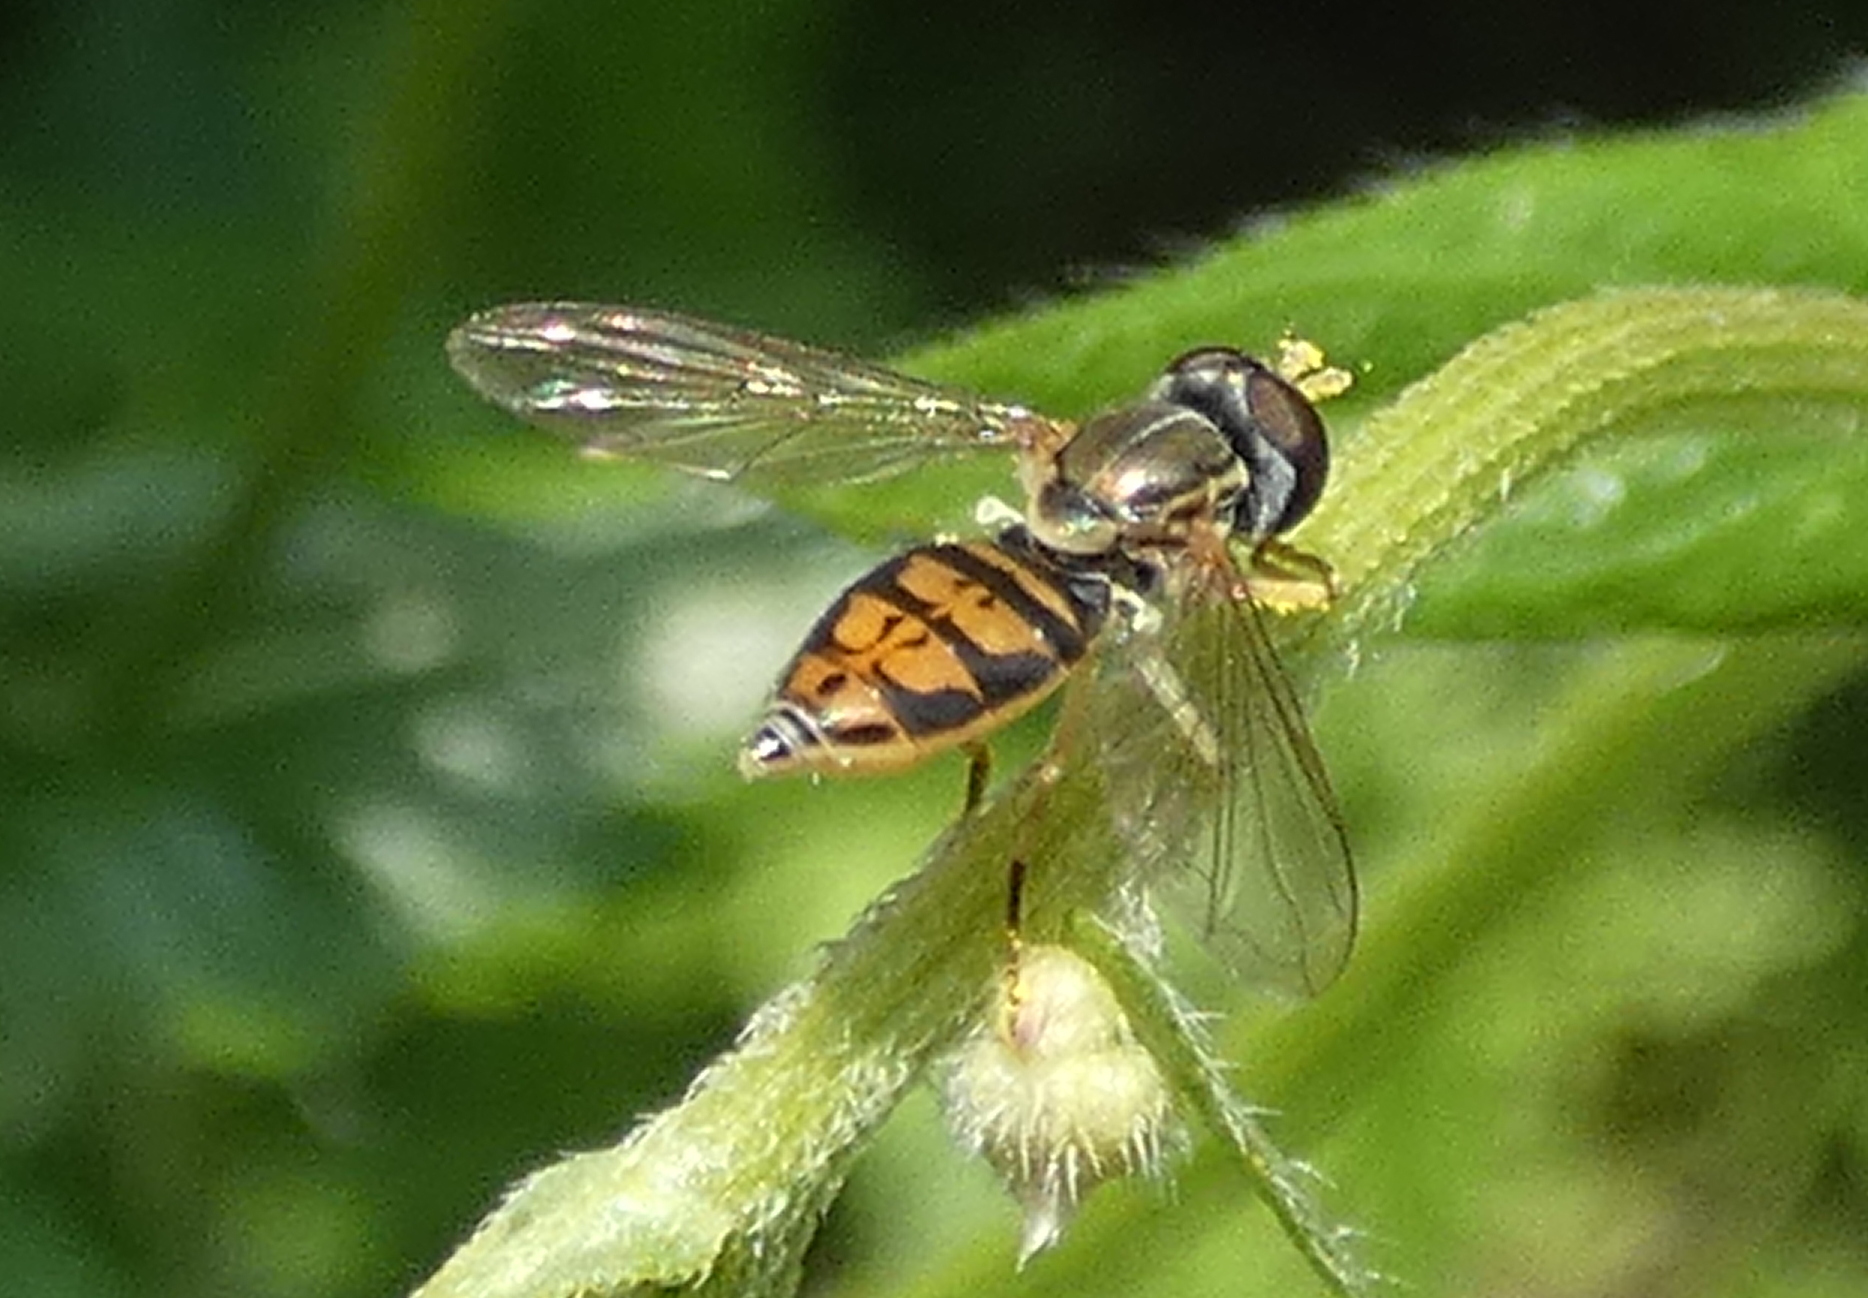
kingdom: Animalia
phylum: Arthropoda
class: Insecta
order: Diptera
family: Syrphidae
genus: Toxomerus
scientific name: Toxomerus marginatus
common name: Syrphid fly
